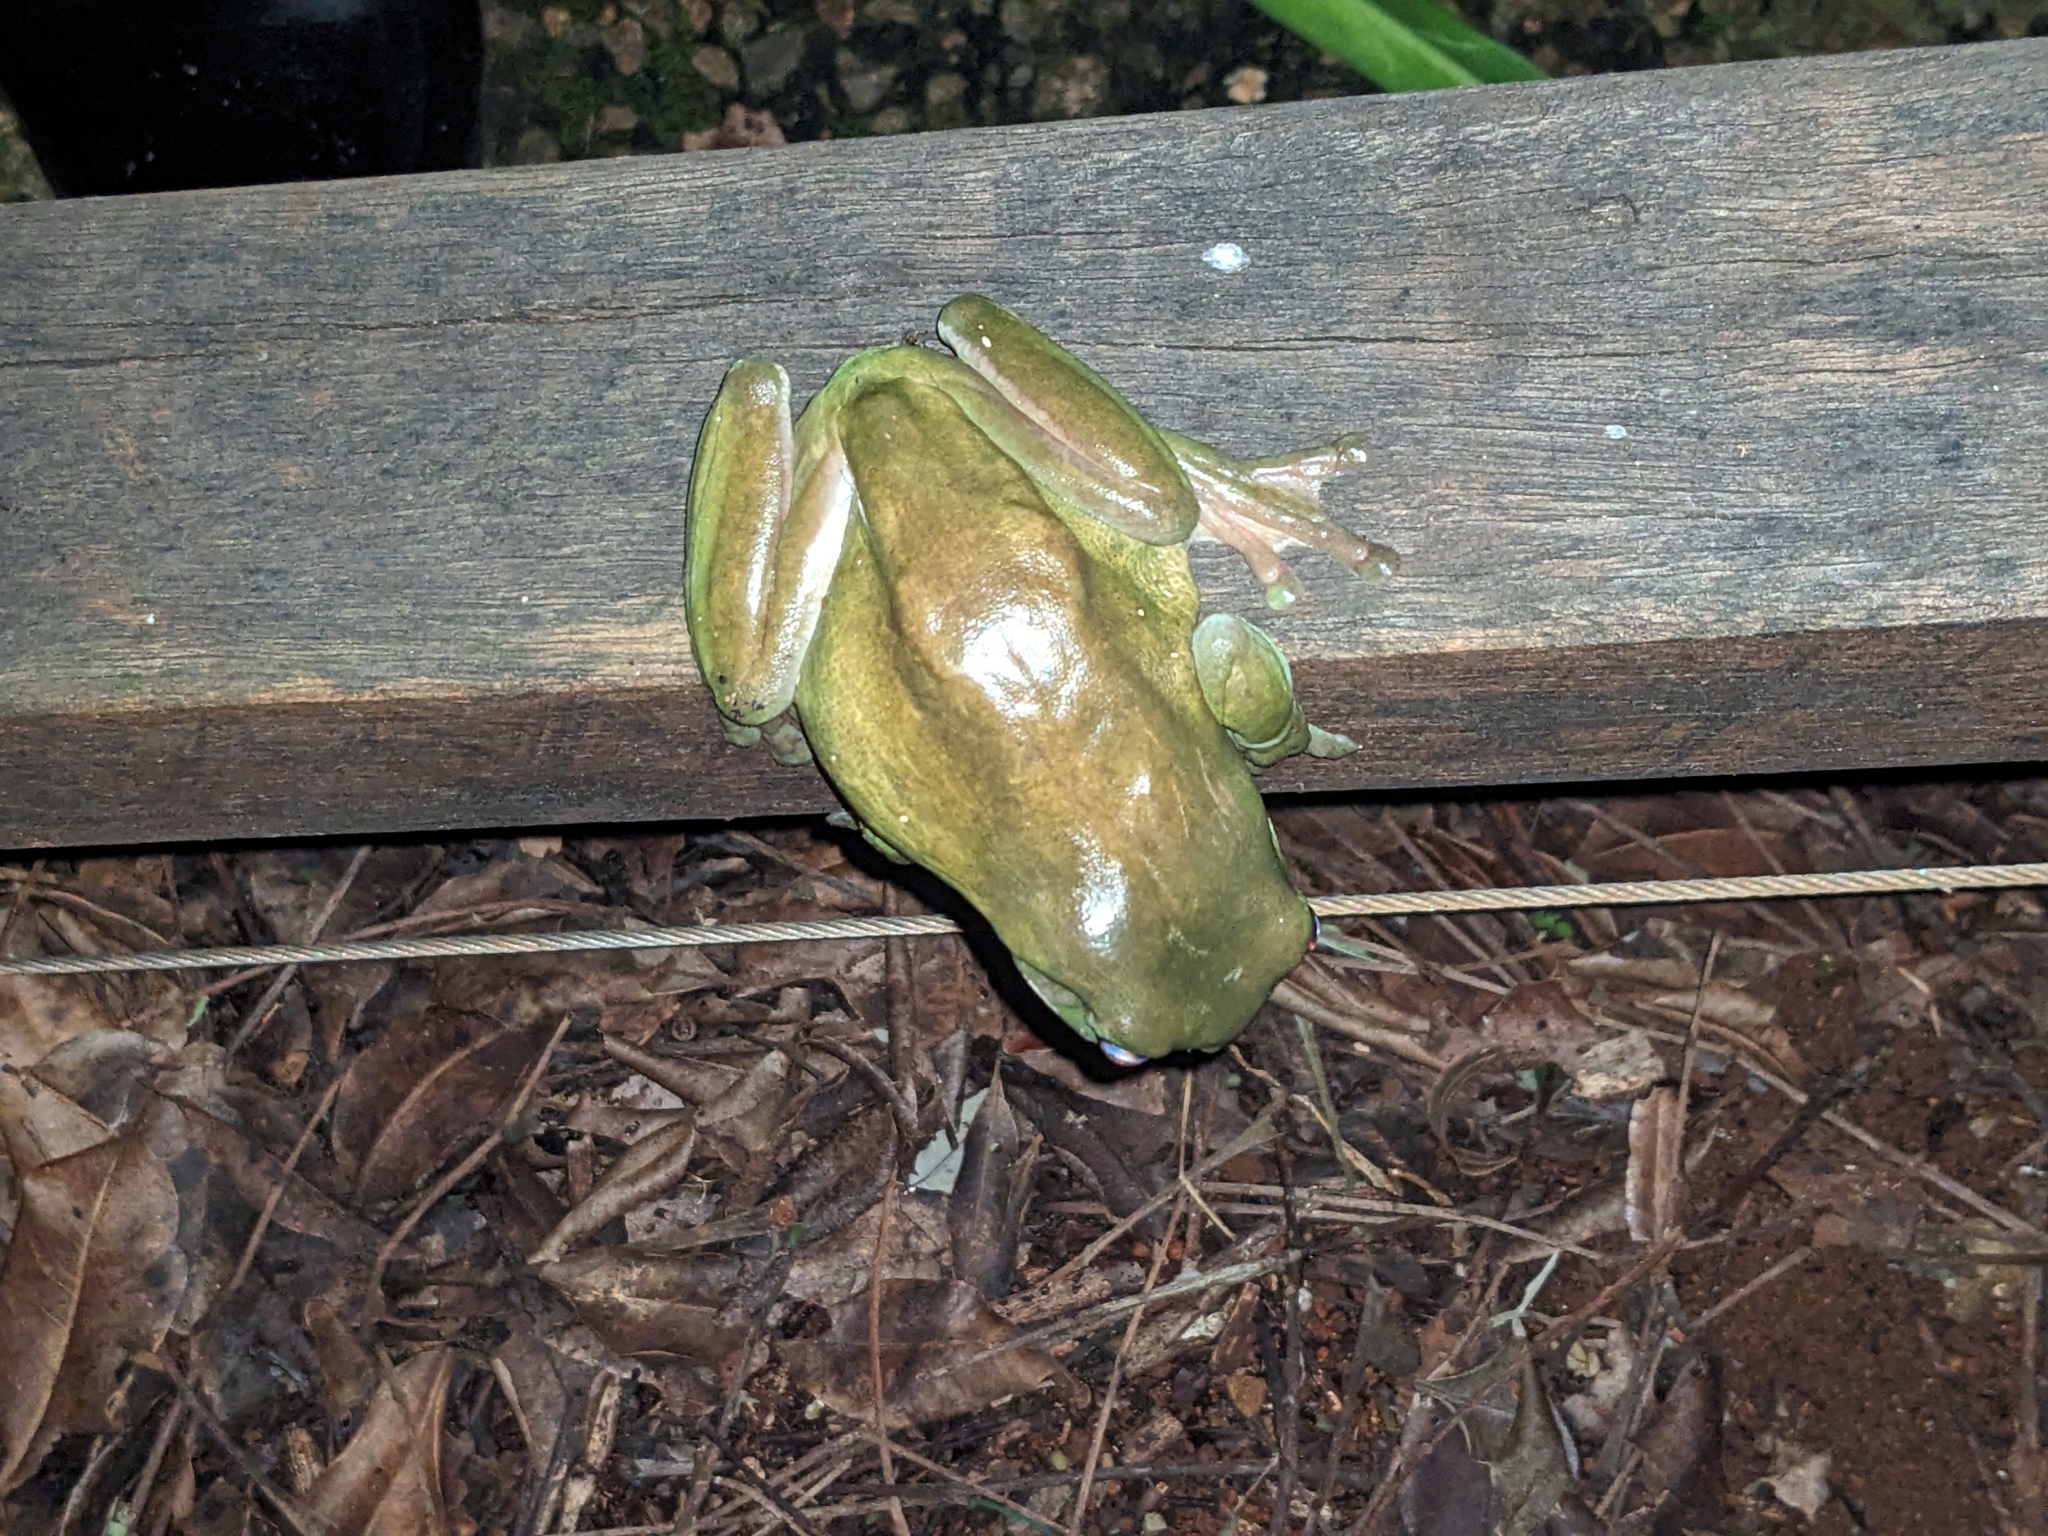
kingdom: Animalia
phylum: Chordata
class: Amphibia
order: Anura
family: Pelodryadidae
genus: Ranoidea
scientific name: Ranoidea caerulea
